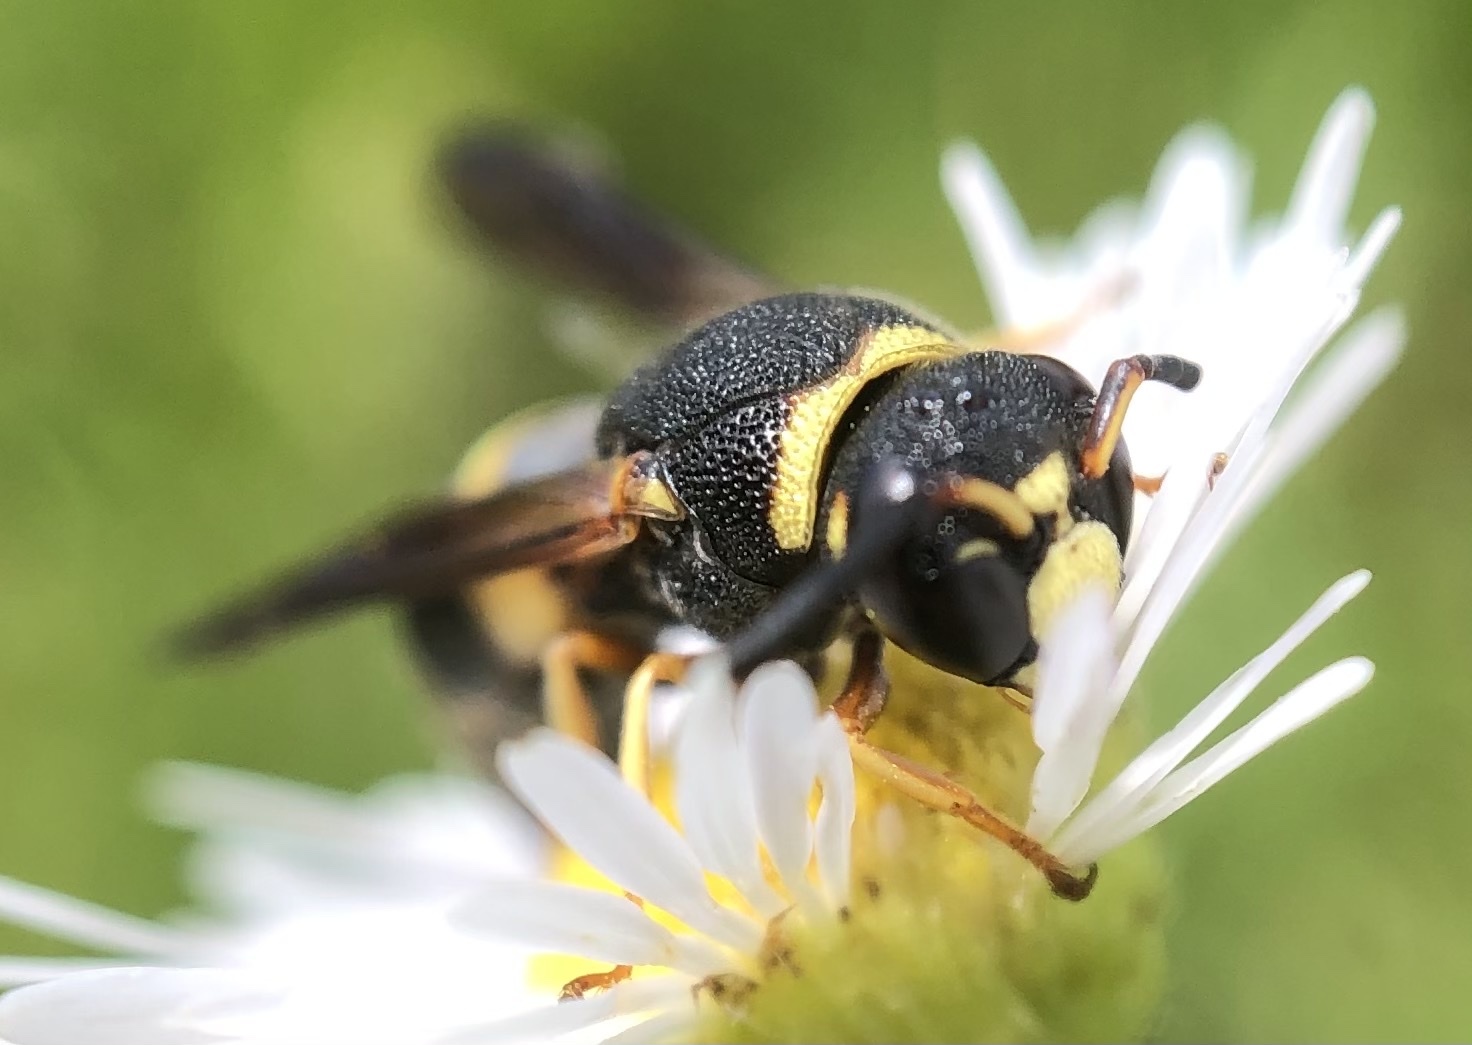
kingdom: Animalia
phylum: Arthropoda
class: Insecta
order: Hymenoptera
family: Eumenidae
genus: Euodynerus
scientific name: Euodynerus hidalgo
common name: Wasp
